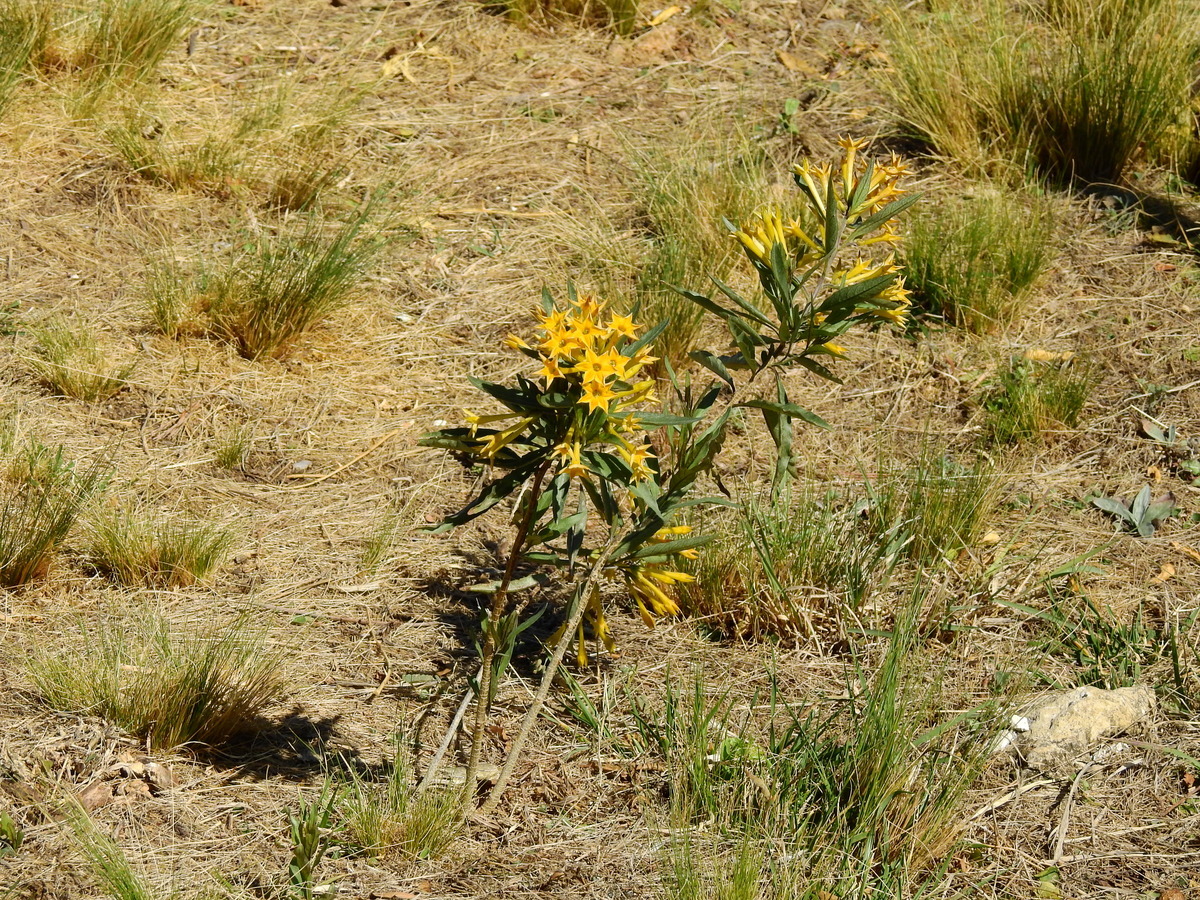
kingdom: Plantae
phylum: Tracheophyta
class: Magnoliopsida
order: Solanales
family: Solanaceae
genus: Cestrum
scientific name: Cestrum parqui
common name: Chilean cestrum
